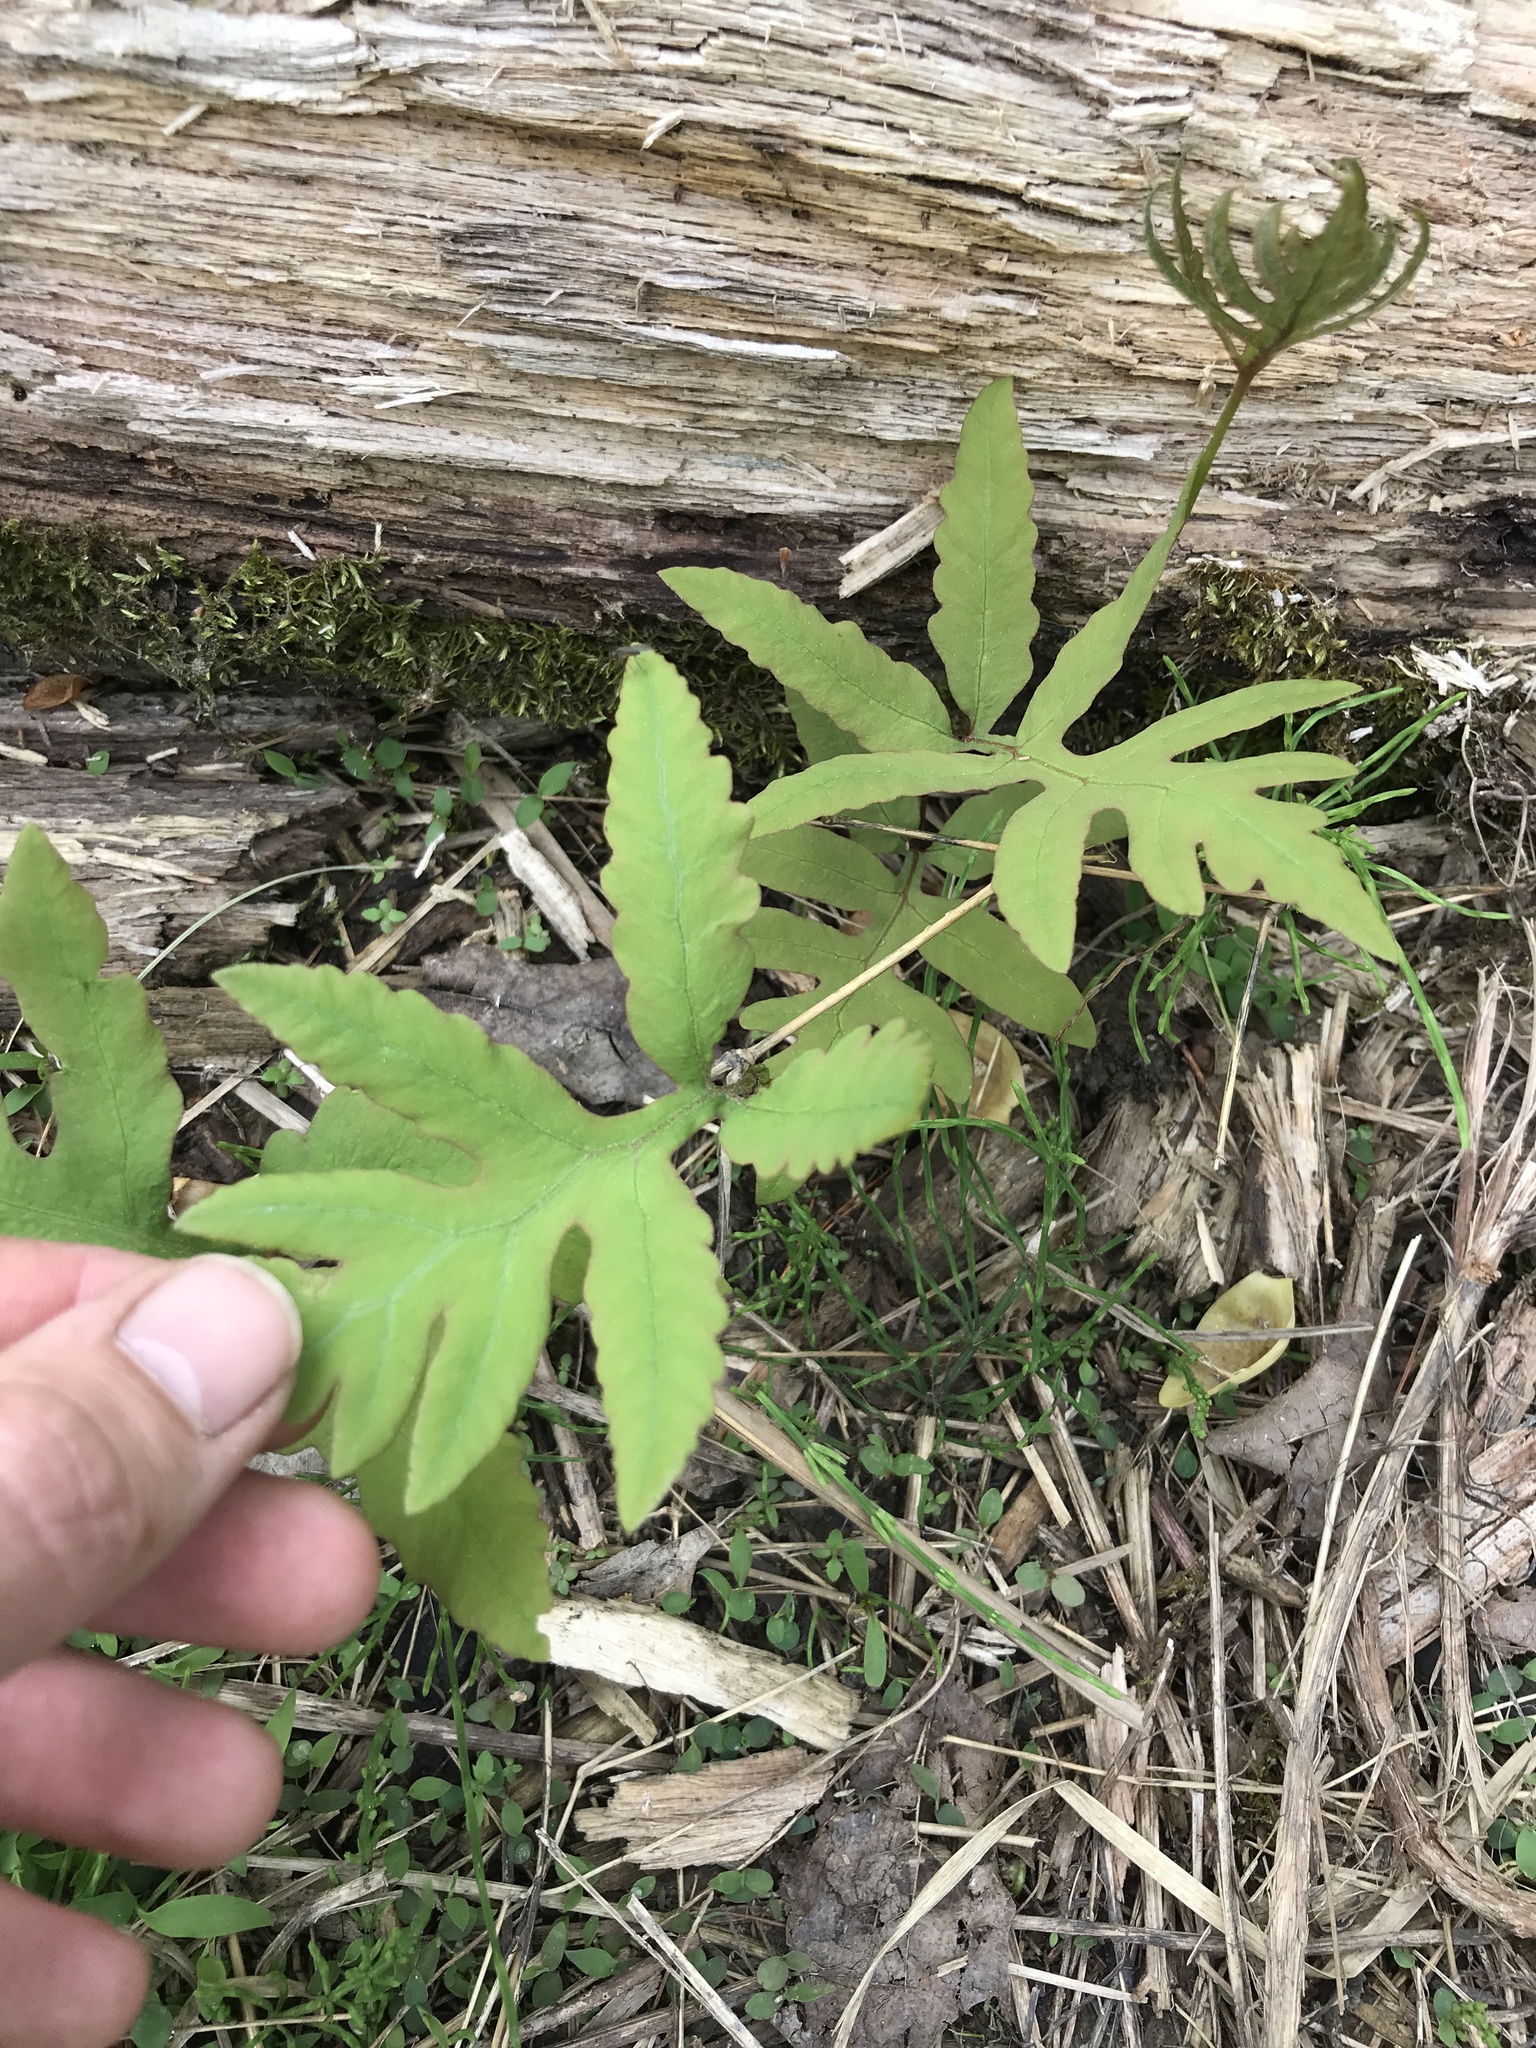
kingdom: Plantae
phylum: Tracheophyta
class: Polypodiopsida
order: Polypodiales
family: Onocleaceae
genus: Onoclea
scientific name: Onoclea sensibilis
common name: Sensitive fern
